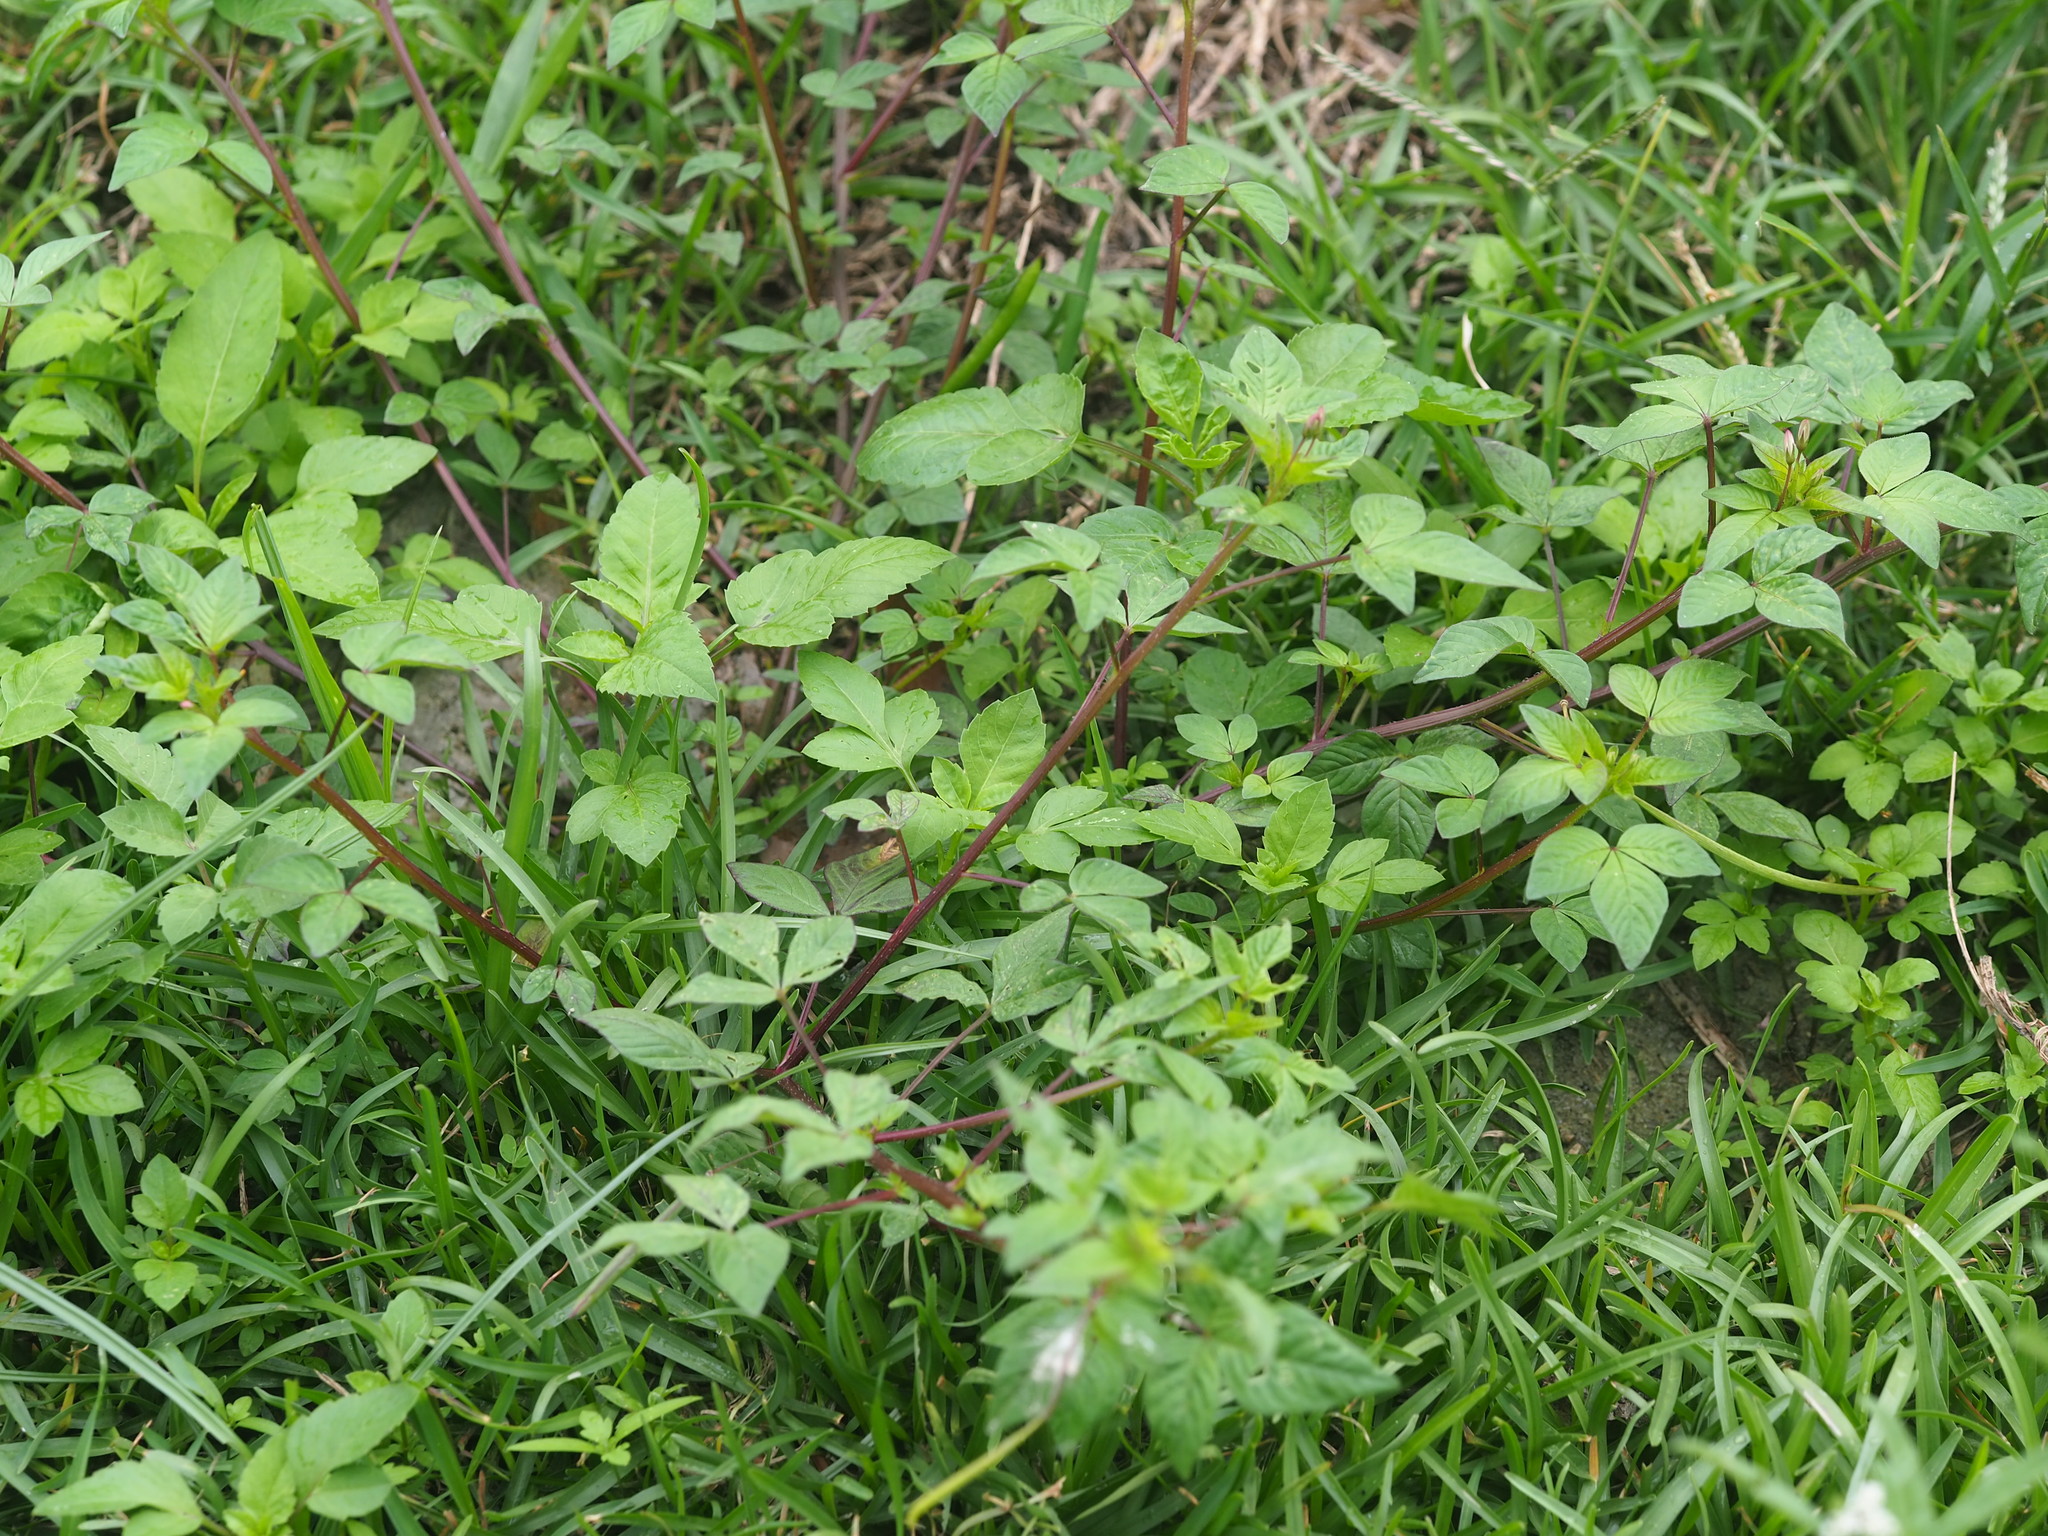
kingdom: Plantae
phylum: Tracheophyta
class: Magnoliopsida
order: Brassicales
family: Cleomaceae
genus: Sieruela
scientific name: Sieruela rutidosperma
